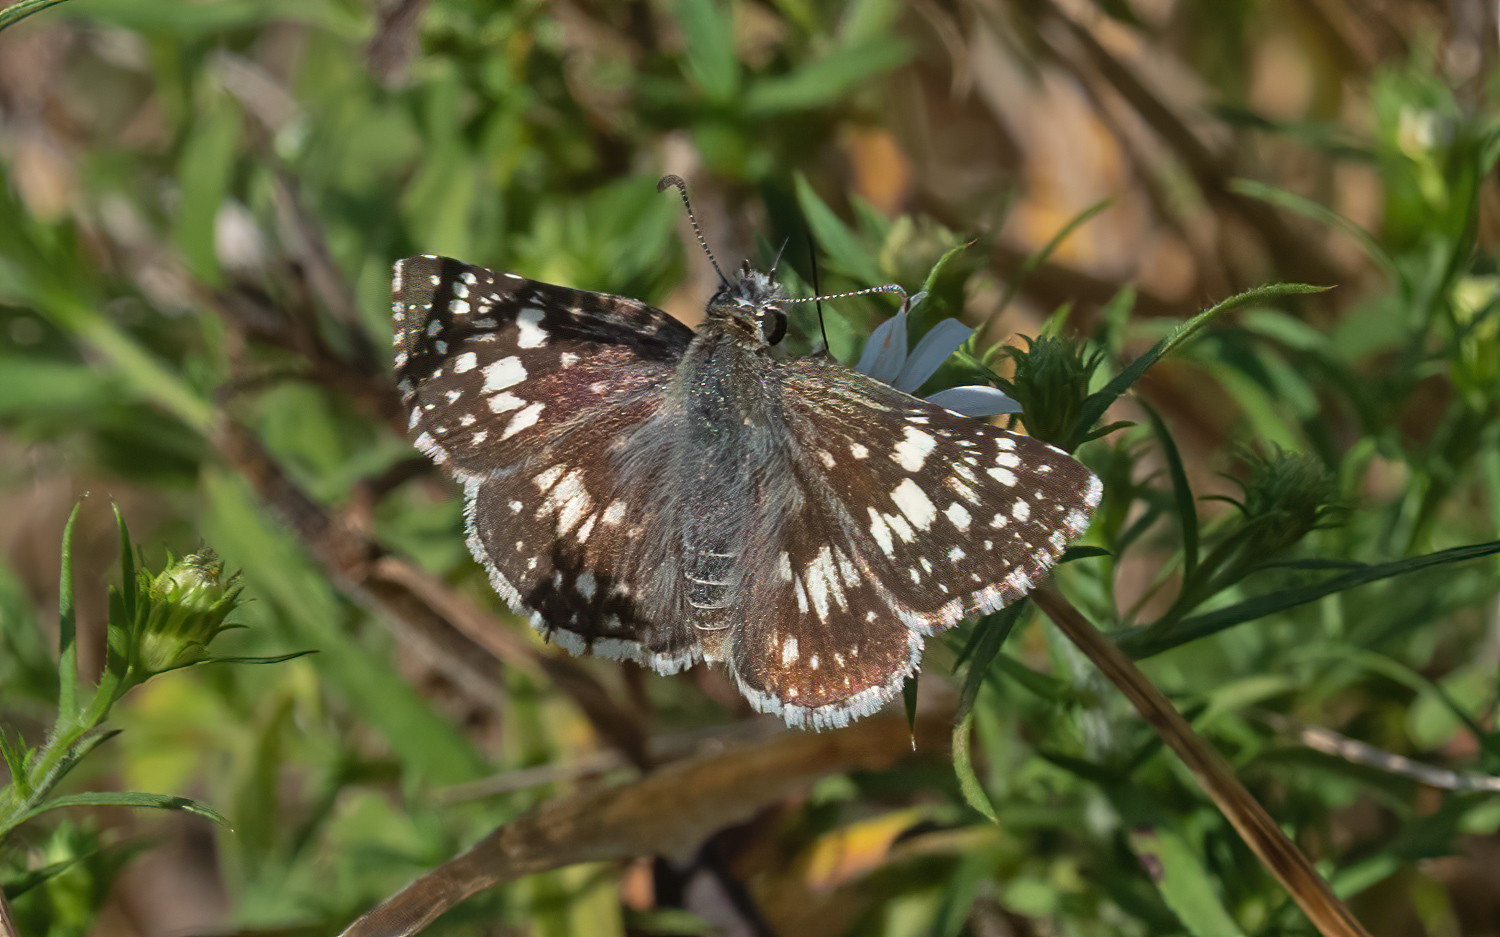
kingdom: Animalia
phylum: Arthropoda
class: Insecta
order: Lepidoptera
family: Hesperiidae
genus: Burnsius
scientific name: Burnsius communis
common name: Common checkered-skipper
